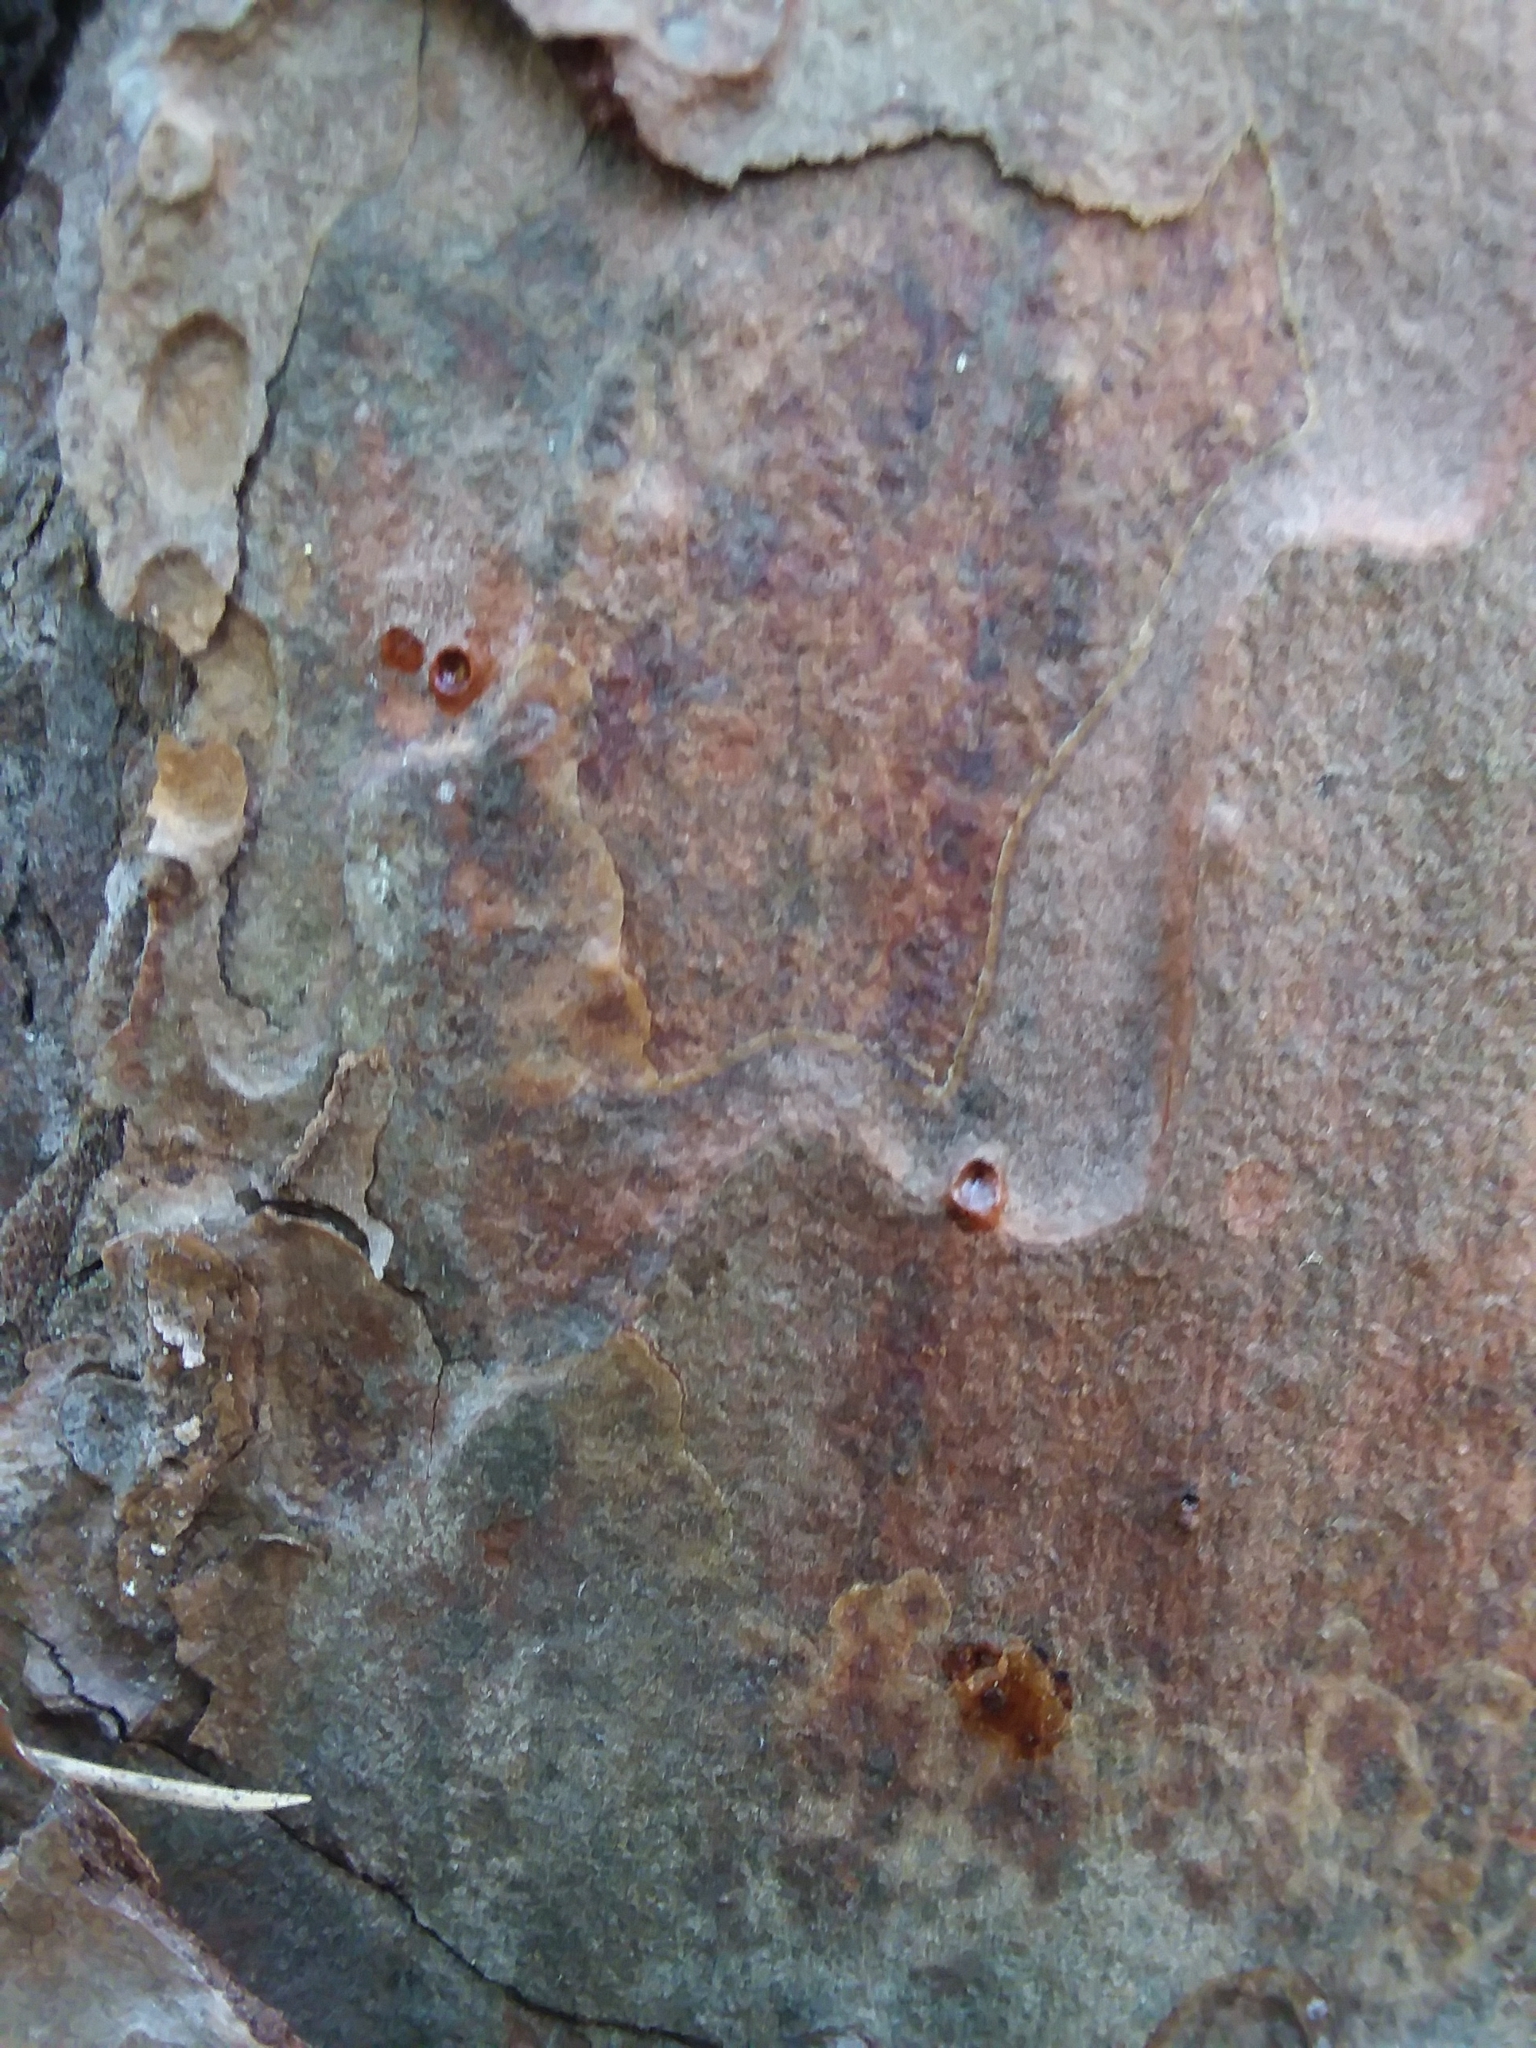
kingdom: Plantae
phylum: Tracheophyta
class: Pinopsida
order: Pinales
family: Pinaceae
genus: Pinus
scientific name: Pinus echinata
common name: Shortleaf pine
